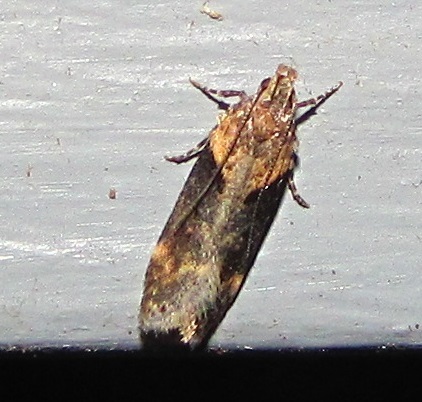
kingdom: Animalia
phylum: Arthropoda
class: Insecta
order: Lepidoptera
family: Gelechiidae
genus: Chionodes
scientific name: Chionodes mediofuscella
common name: Black-smudged chionodes moth
